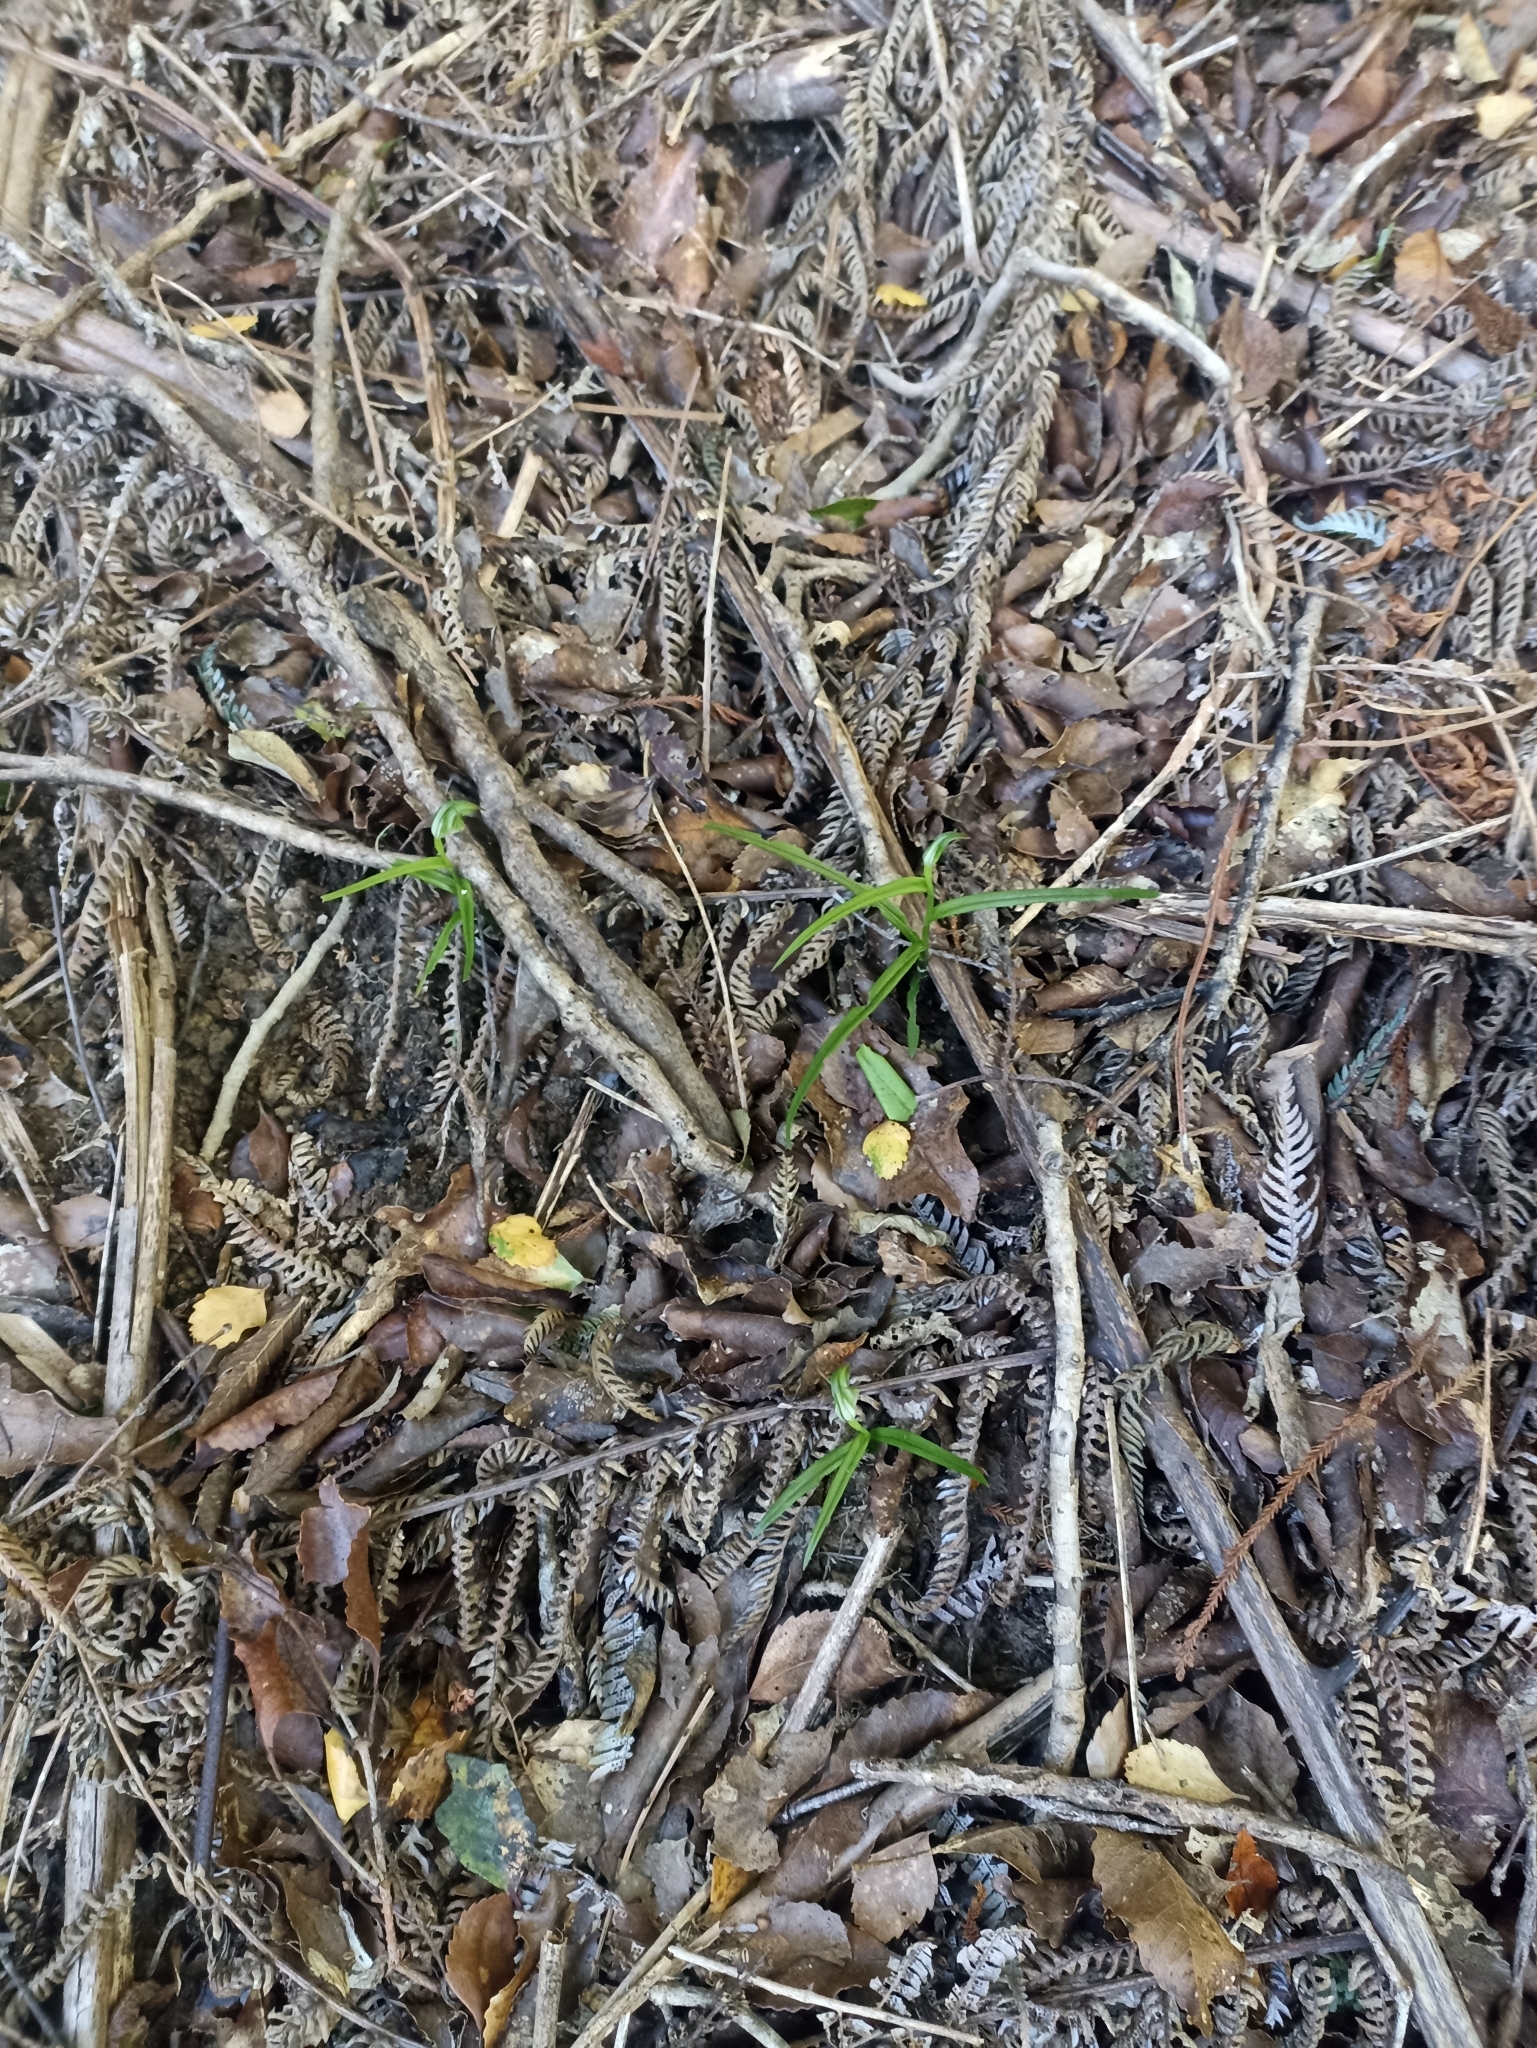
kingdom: Plantae
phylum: Tracheophyta
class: Liliopsida
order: Asparagales
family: Orchidaceae
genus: Pterostylis
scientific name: Pterostylis graminea
